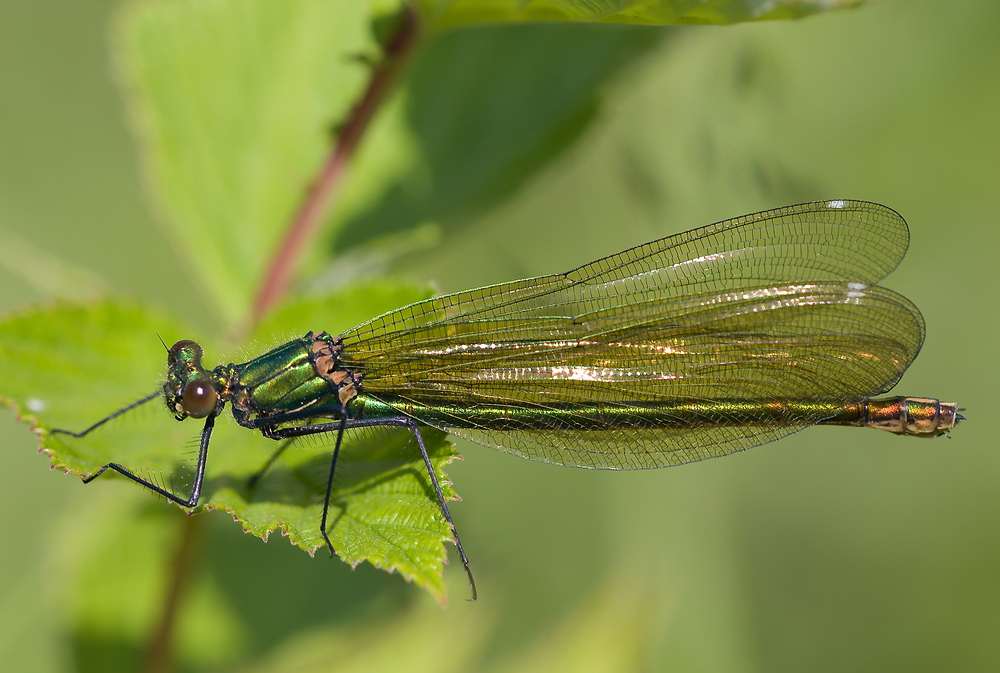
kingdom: Animalia
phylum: Arthropoda
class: Insecta
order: Odonata
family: Calopterygidae
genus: Calopteryx
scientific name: Calopteryx splendens
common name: Banded demoiselle
